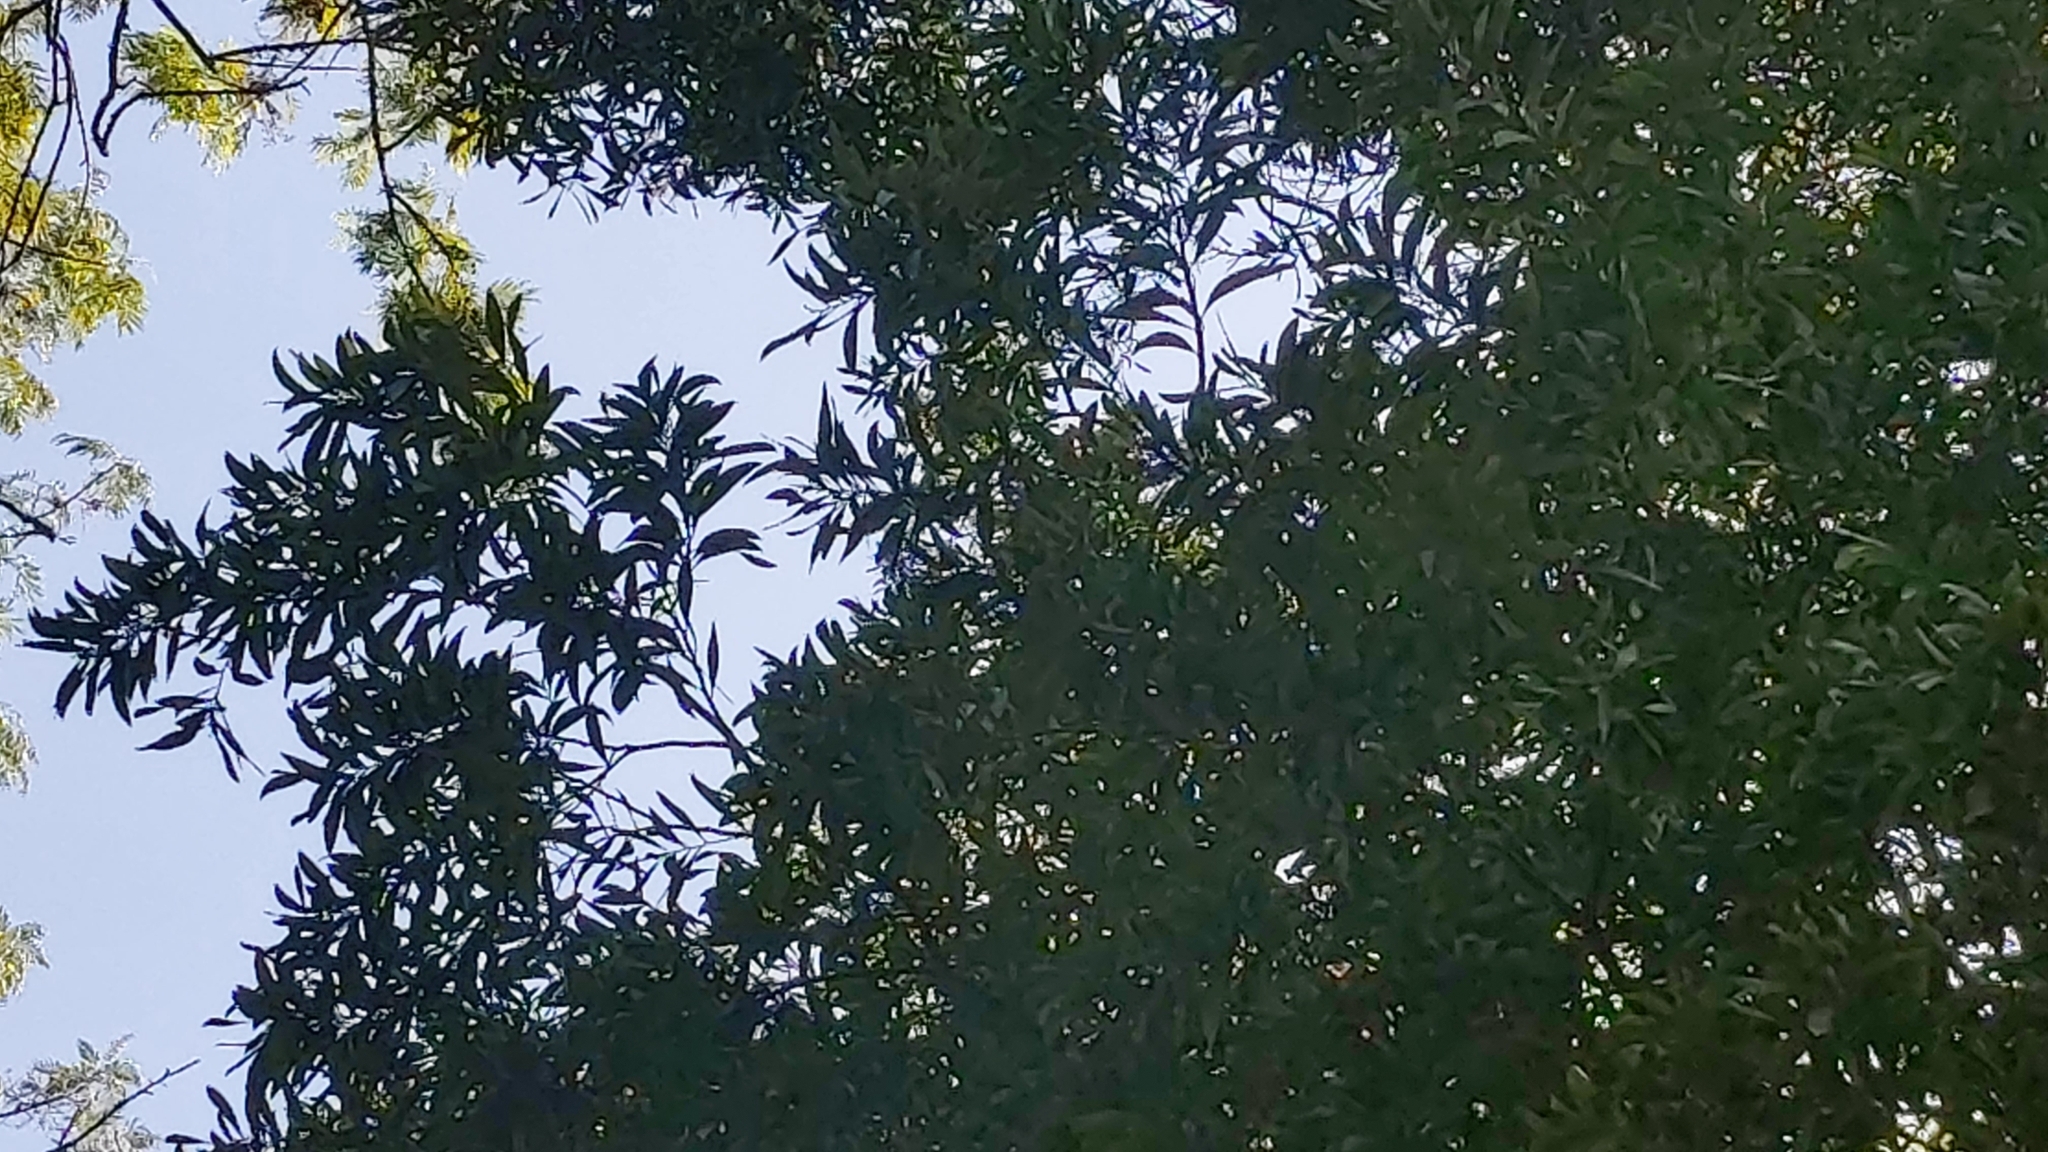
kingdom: Plantae
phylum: Tracheophyta
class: Magnoliopsida
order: Fabales
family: Fabaceae
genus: Acacia
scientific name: Acacia melanoxylon
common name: Blackwood
